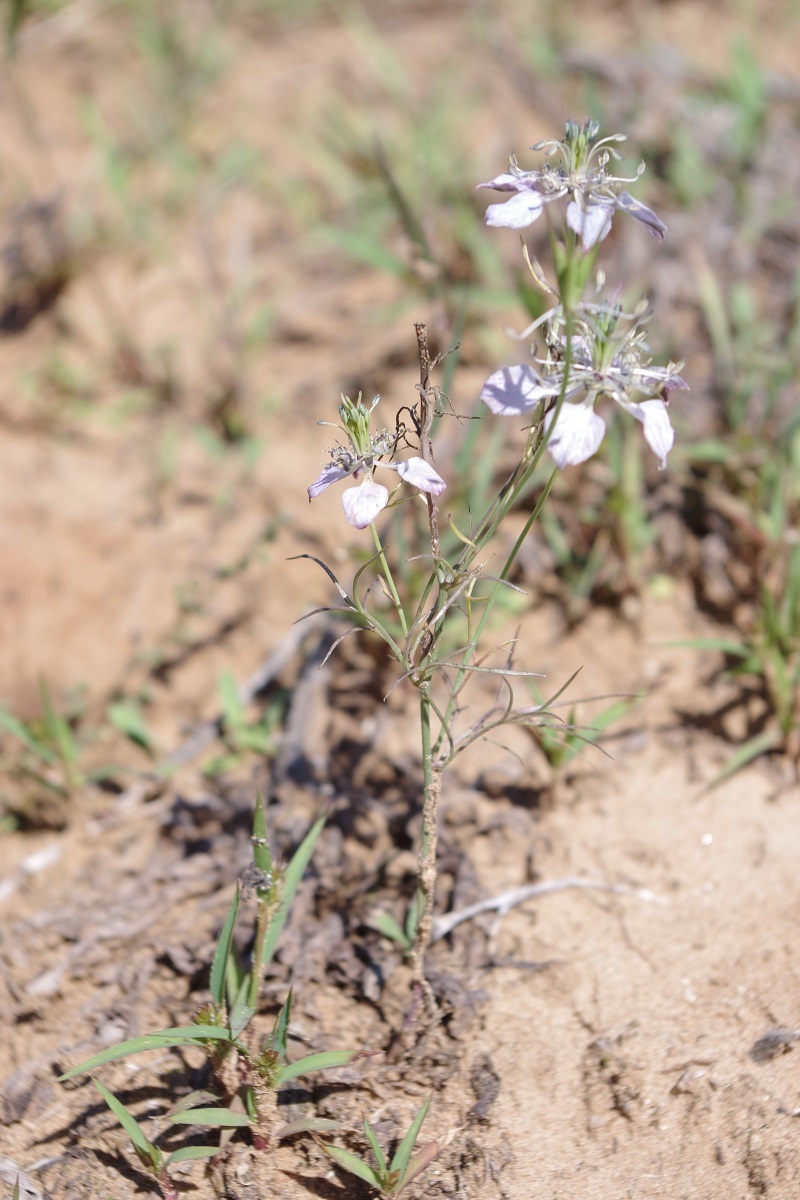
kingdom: Plantae
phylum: Tracheophyta
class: Magnoliopsida
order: Ranunculales
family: Ranunculaceae
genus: Nigella
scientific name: Nigella arvensis
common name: Wild fennel-flower
